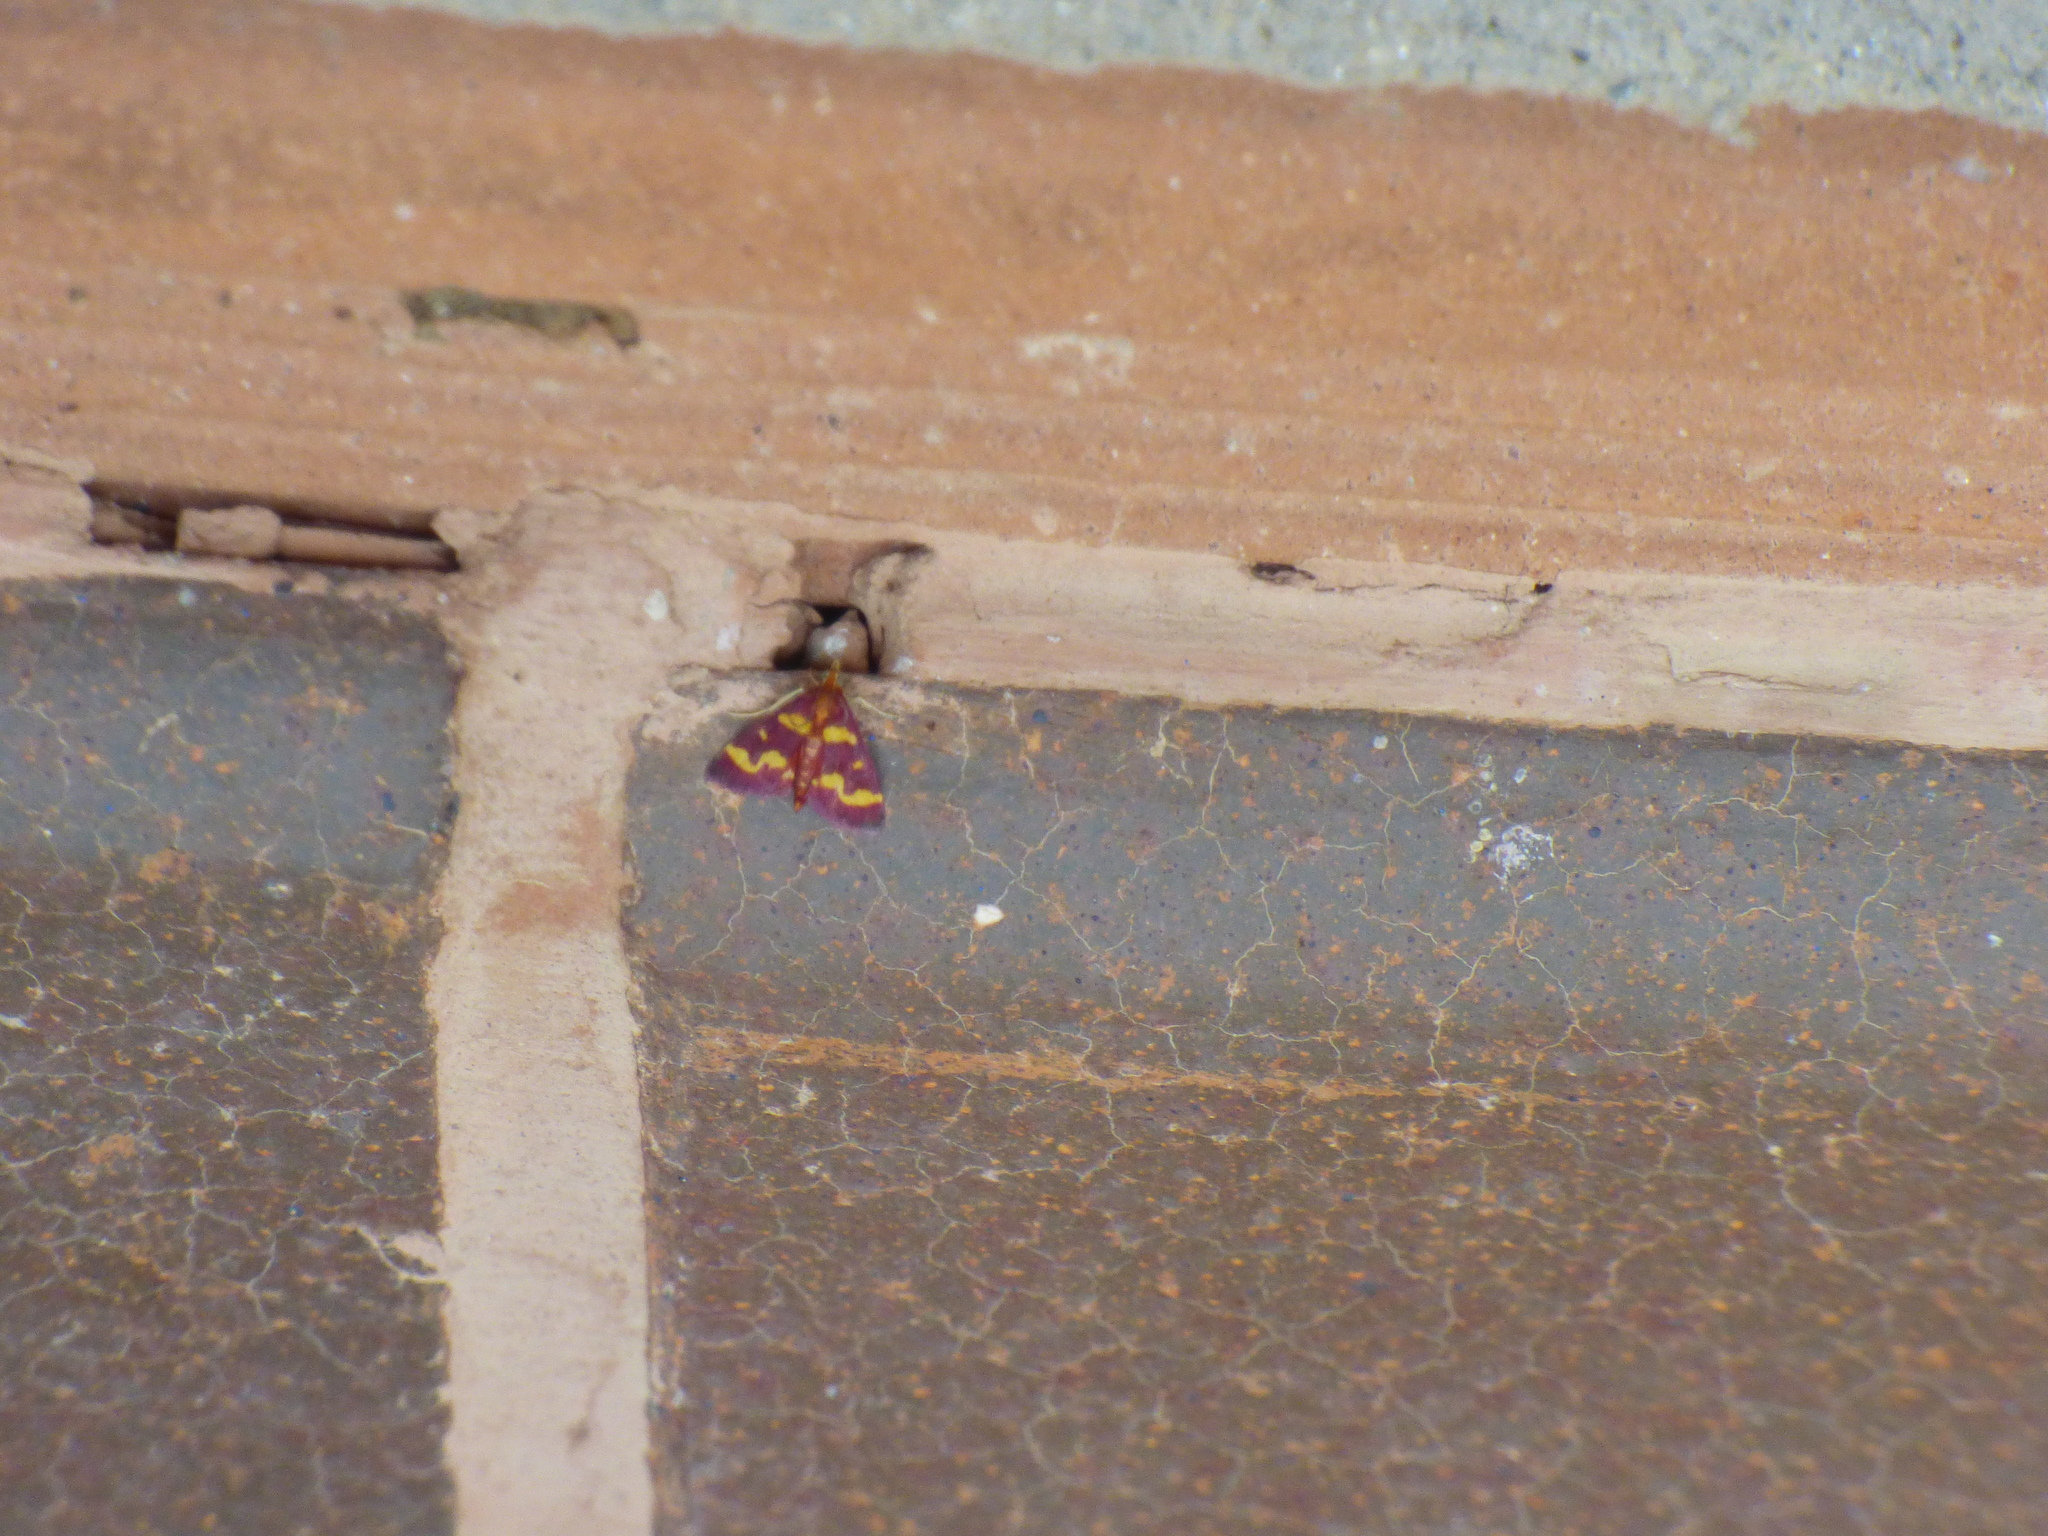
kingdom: Animalia
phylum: Arthropoda
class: Insecta
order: Lepidoptera
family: Crambidae
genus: Pyrausta
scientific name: Pyrausta tyralis
